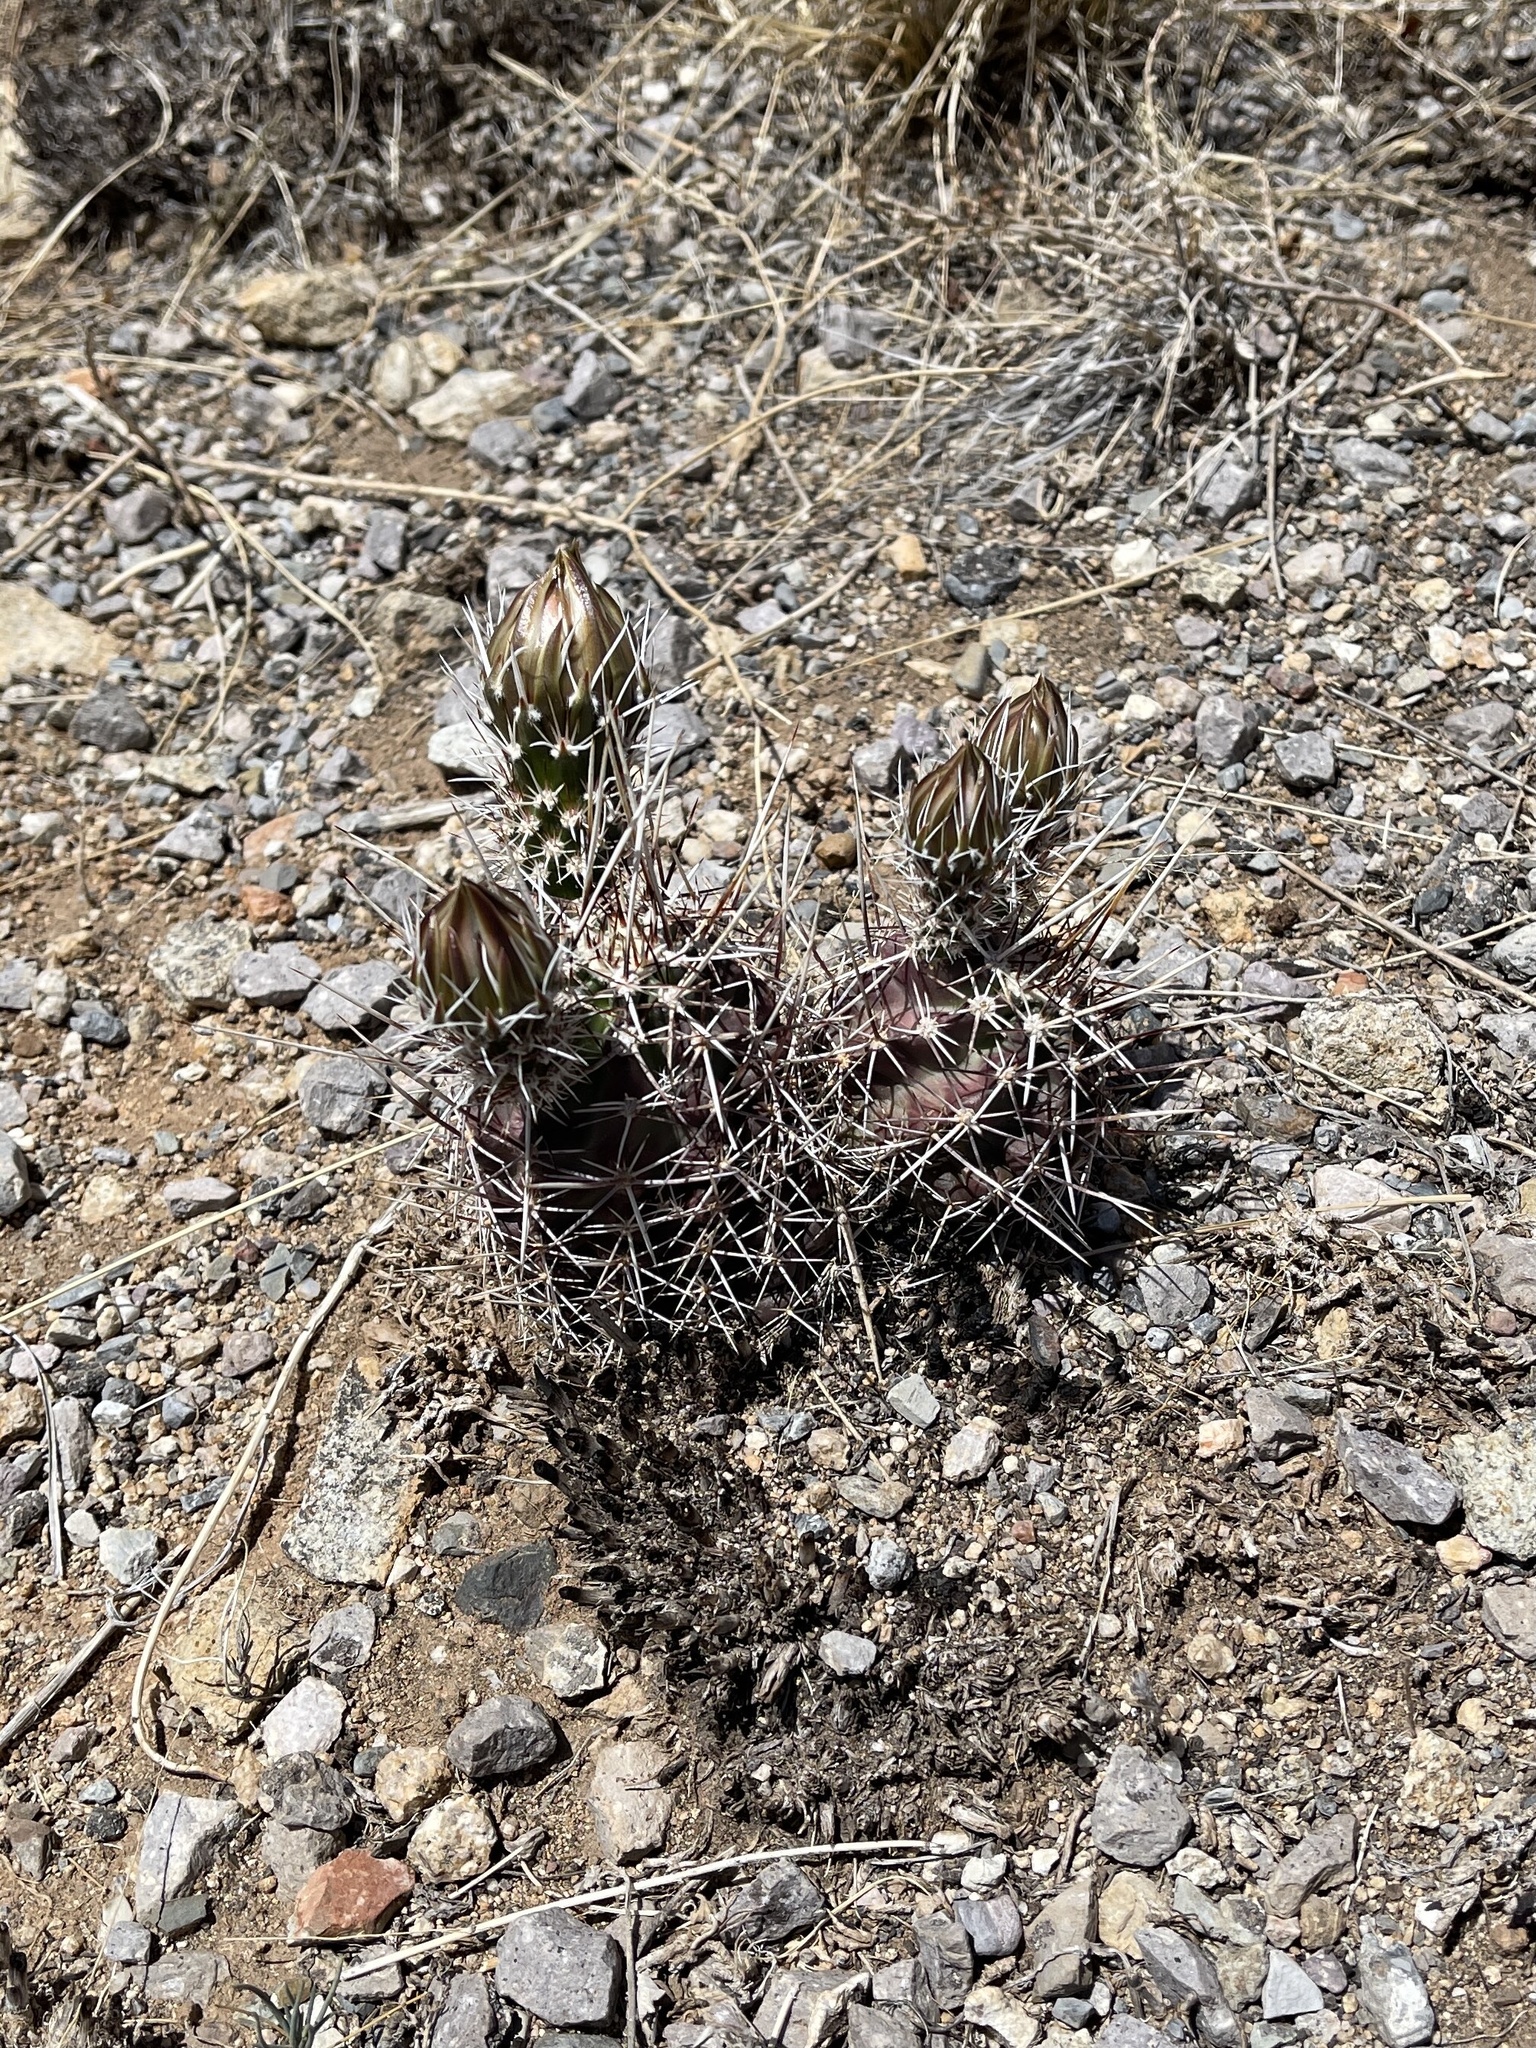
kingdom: Plantae
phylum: Tracheophyta
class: Magnoliopsida
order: Caryophyllales
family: Cactaceae
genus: Echinocereus
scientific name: Echinocereus fendleri
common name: Fendler's hedgehog cactus
